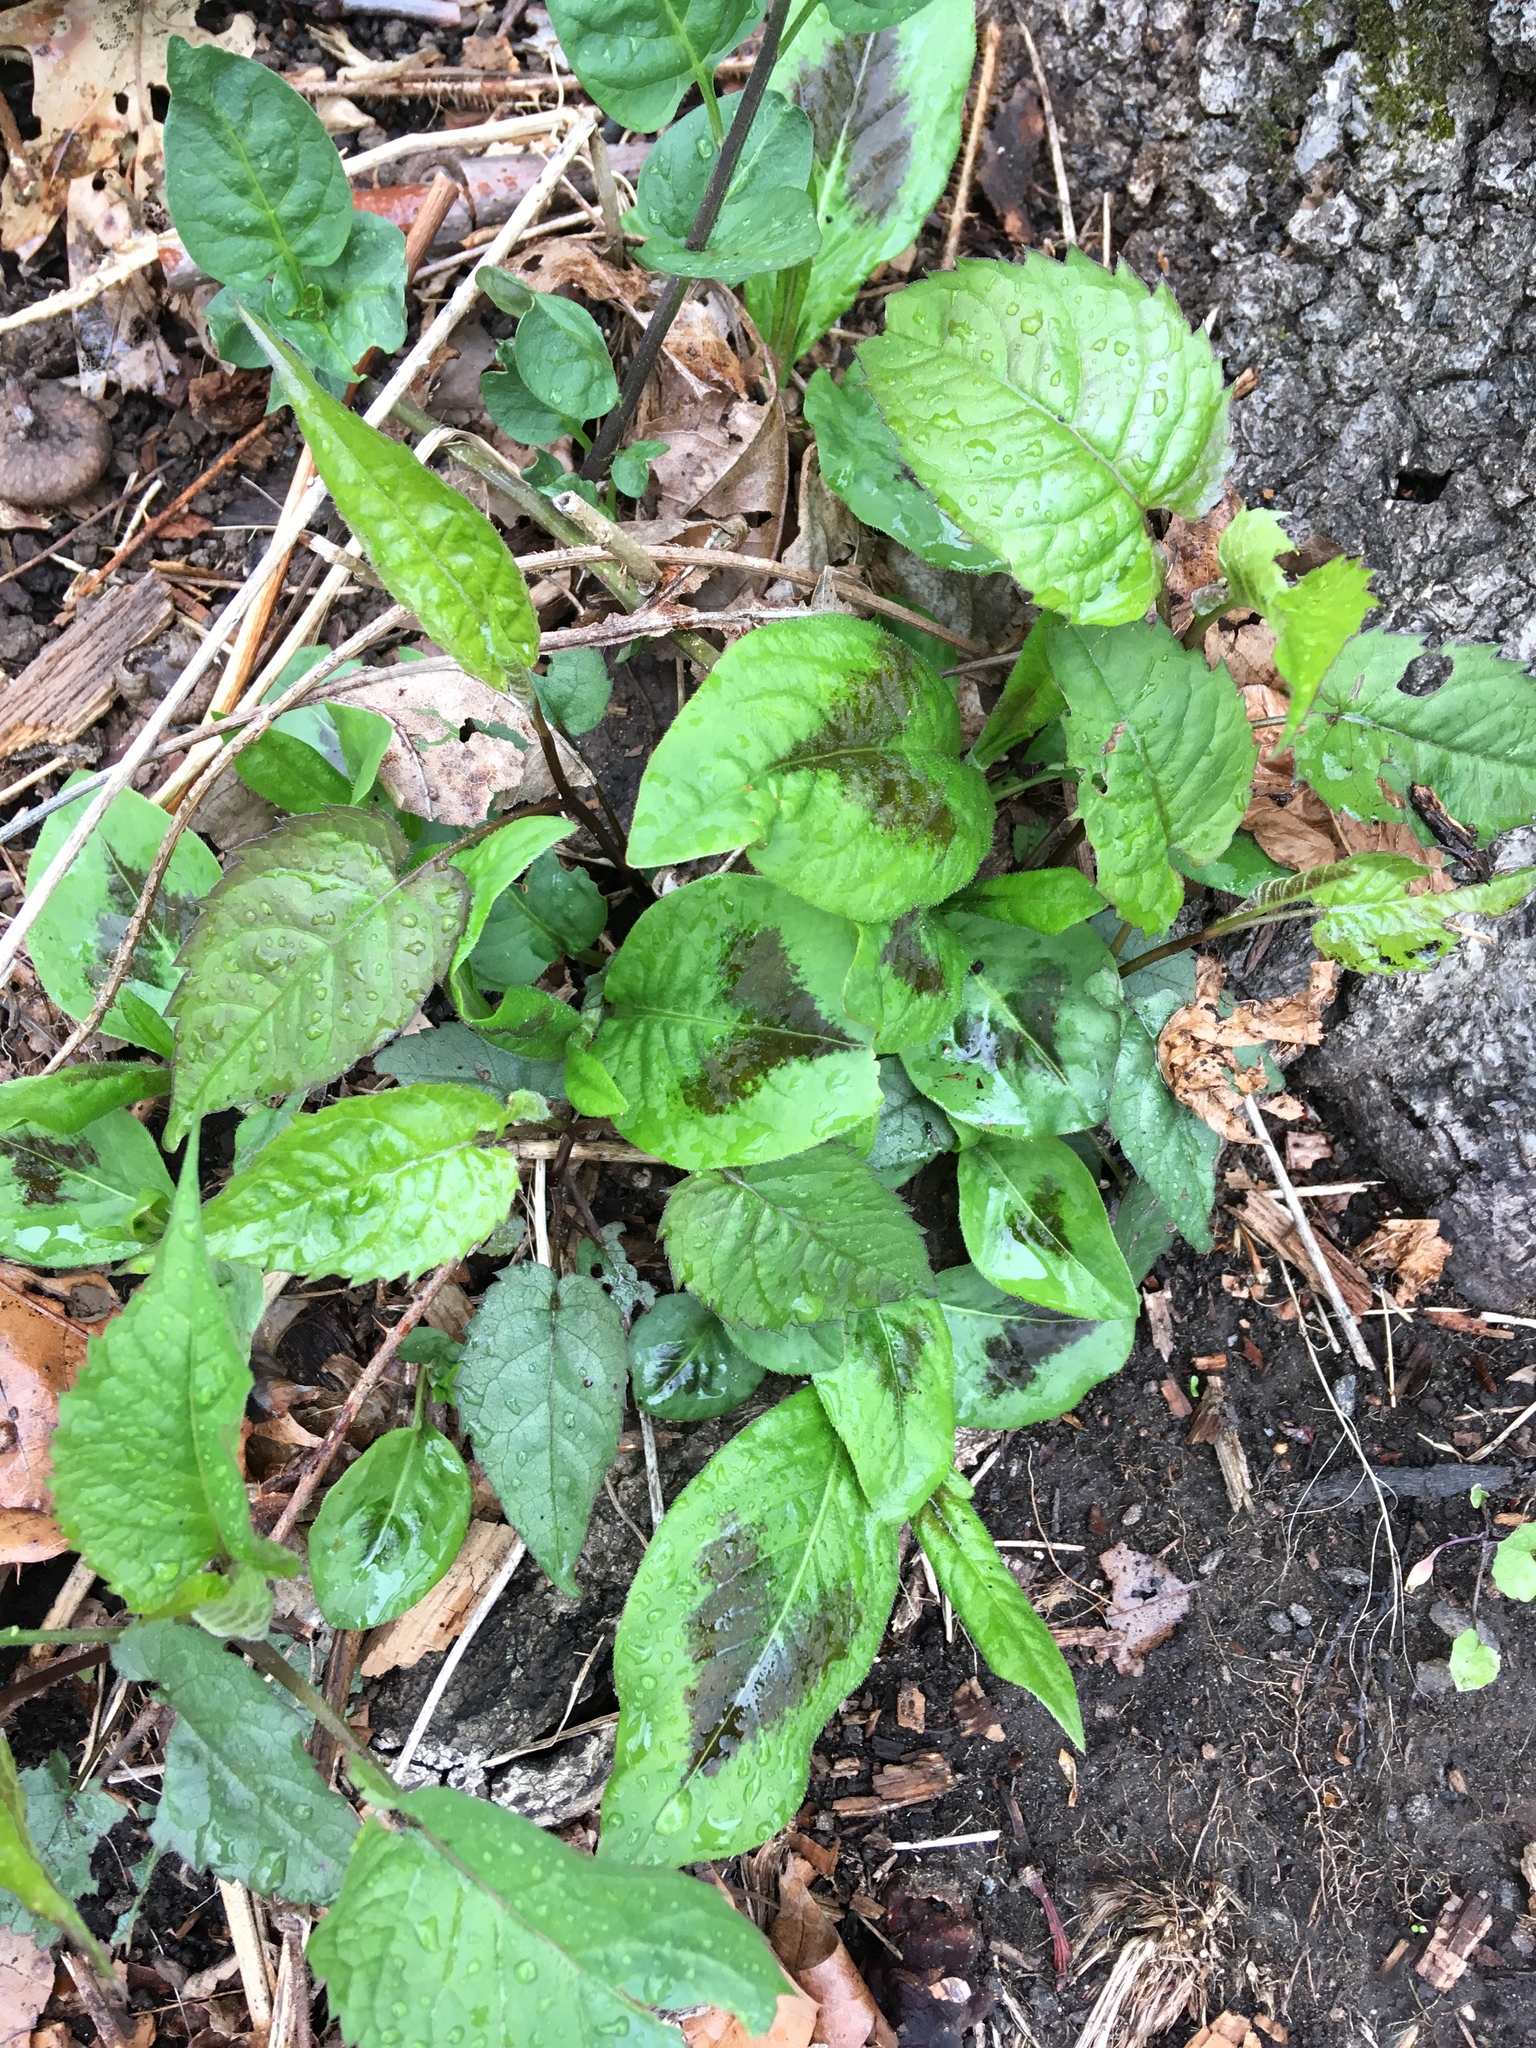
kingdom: Plantae
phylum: Tracheophyta
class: Magnoliopsida
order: Caryophyllales
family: Polygonaceae
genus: Persicaria
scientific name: Persicaria virginiana
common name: Jumpseed
